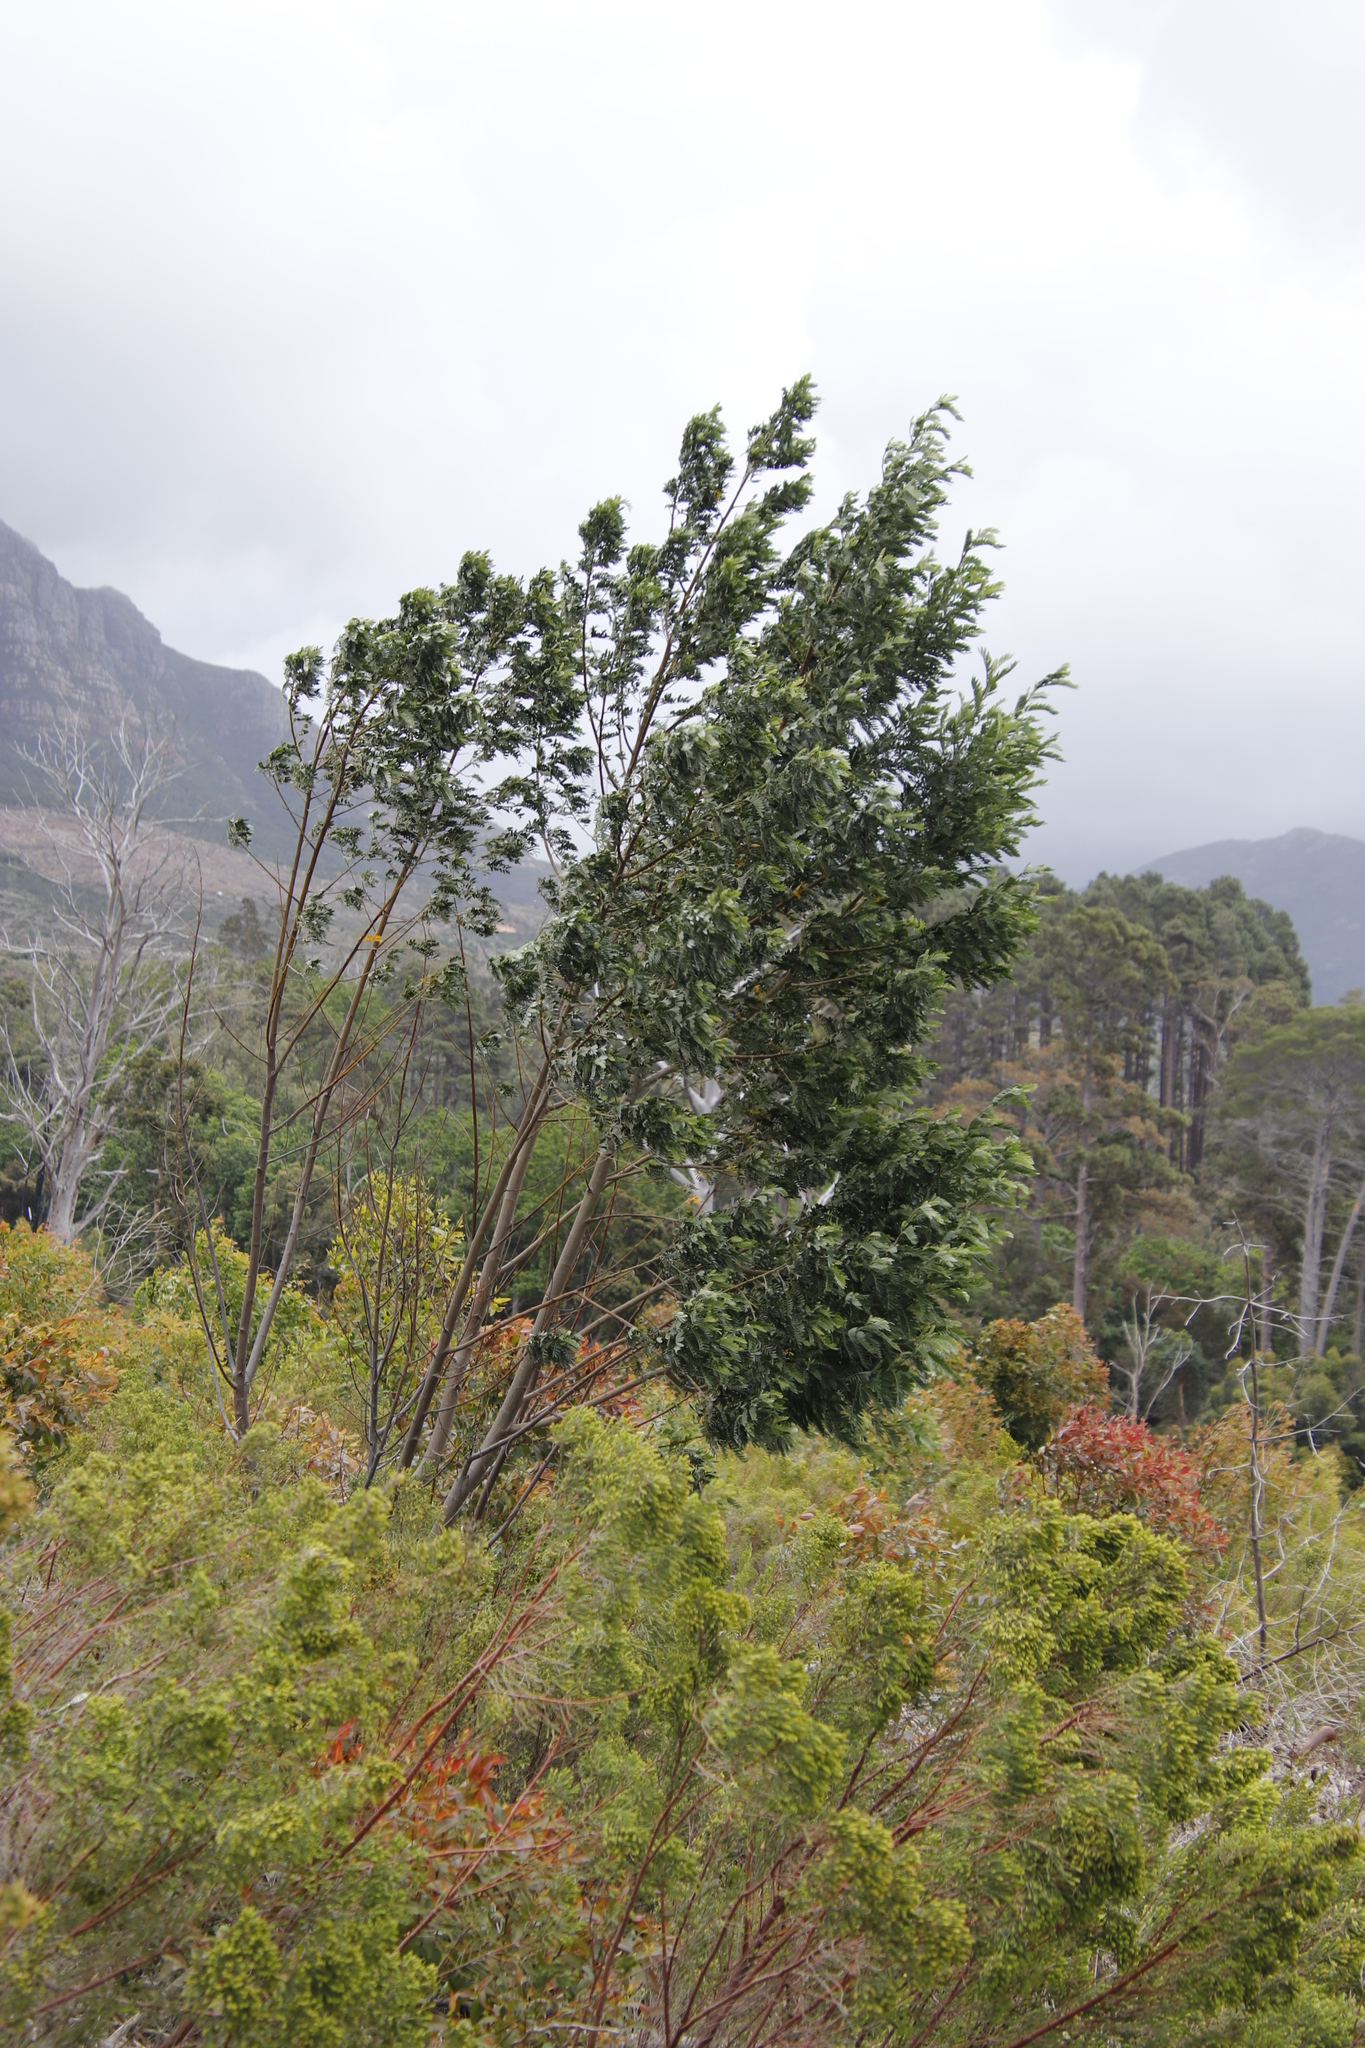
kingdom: Plantae
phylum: Tracheophyta
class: Magnoliopsida
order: Fabales
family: Fabaceae
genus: Acacia
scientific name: Acacia mearnsii
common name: Black wattle
